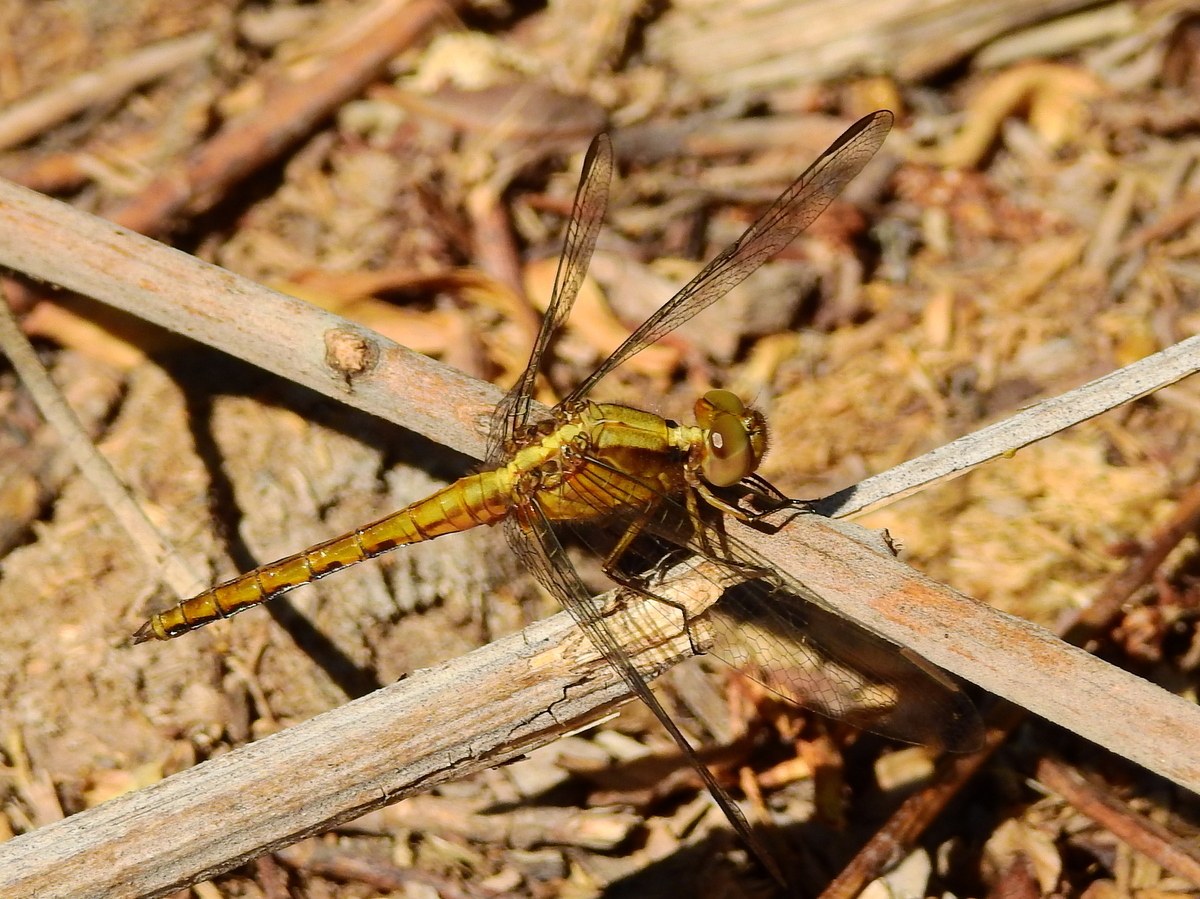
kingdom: Animalia
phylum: Arthropoda
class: Insecta
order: Odonata
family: Libellulidae
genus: Erythrodiplax
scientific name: Erythrodiplax connata
